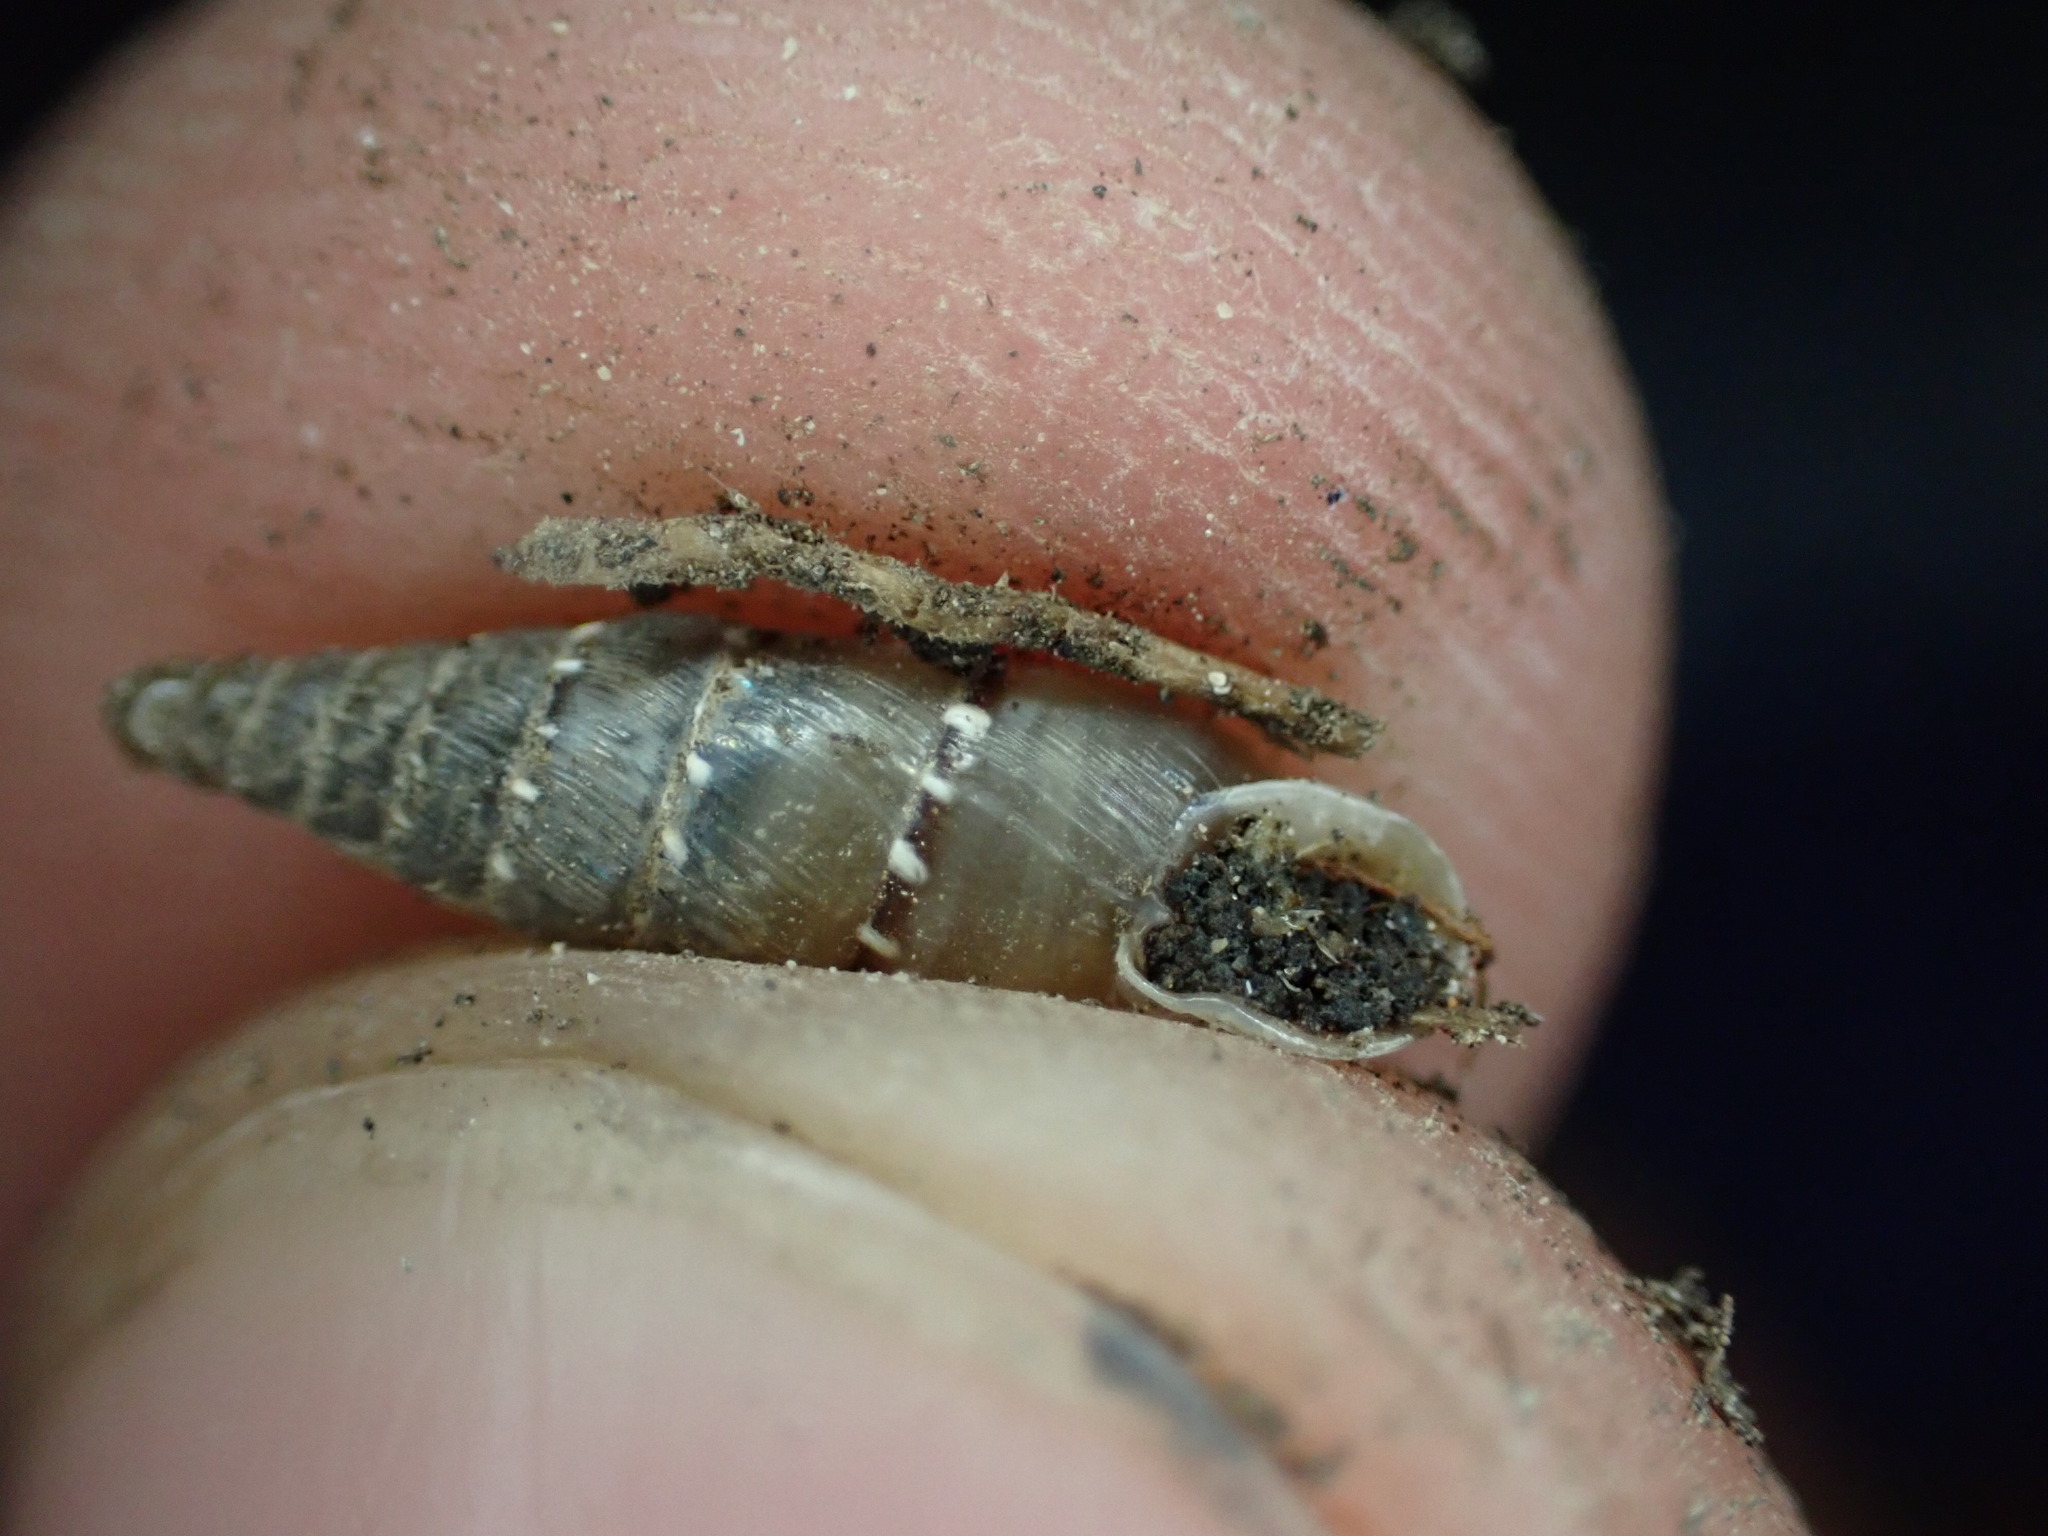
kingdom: Animalia
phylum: Mollusca
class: Gastropoda
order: Stylommatophora
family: Clausiliidae
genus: Papillifera
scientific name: Papillifera papillaris
